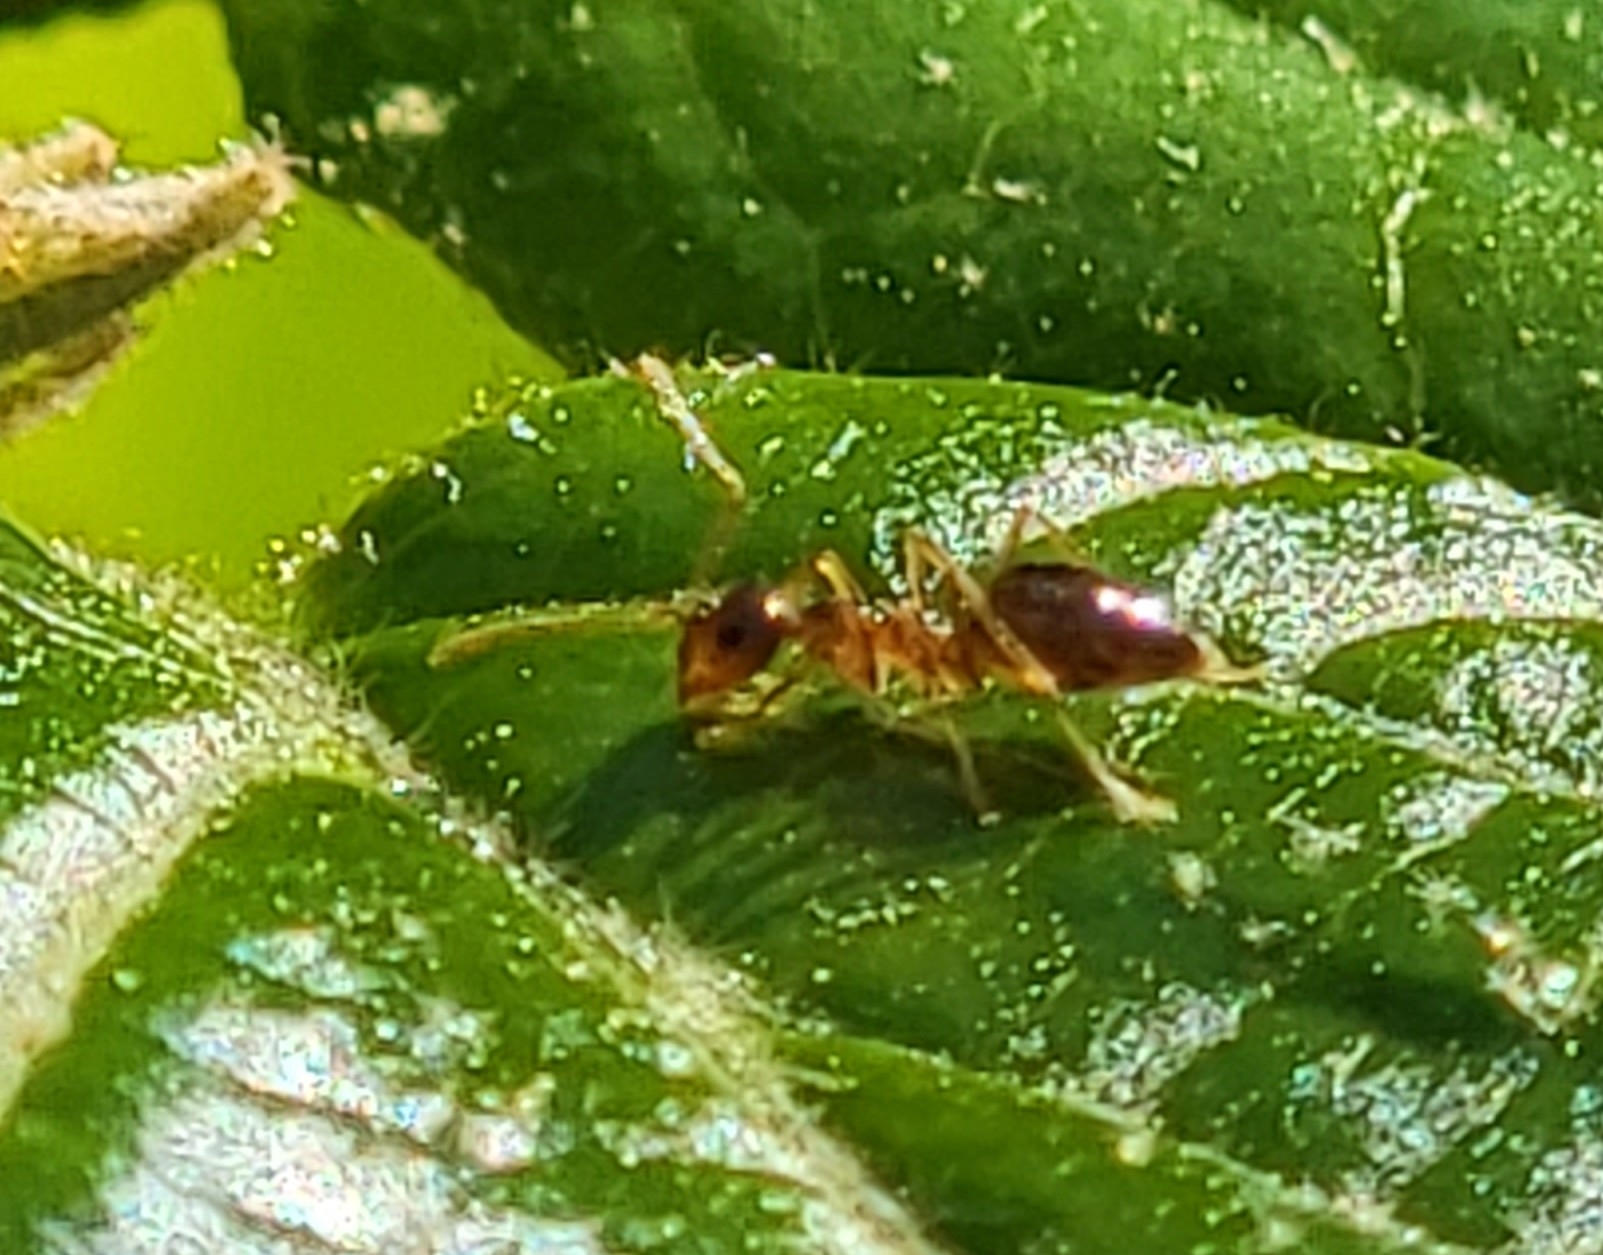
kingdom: Animalia
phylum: Arthropoda
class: Insecta
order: Hymenoptera
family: Formicidae
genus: Prenolepis
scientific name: Prenolepis imparis
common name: Small honey ant
